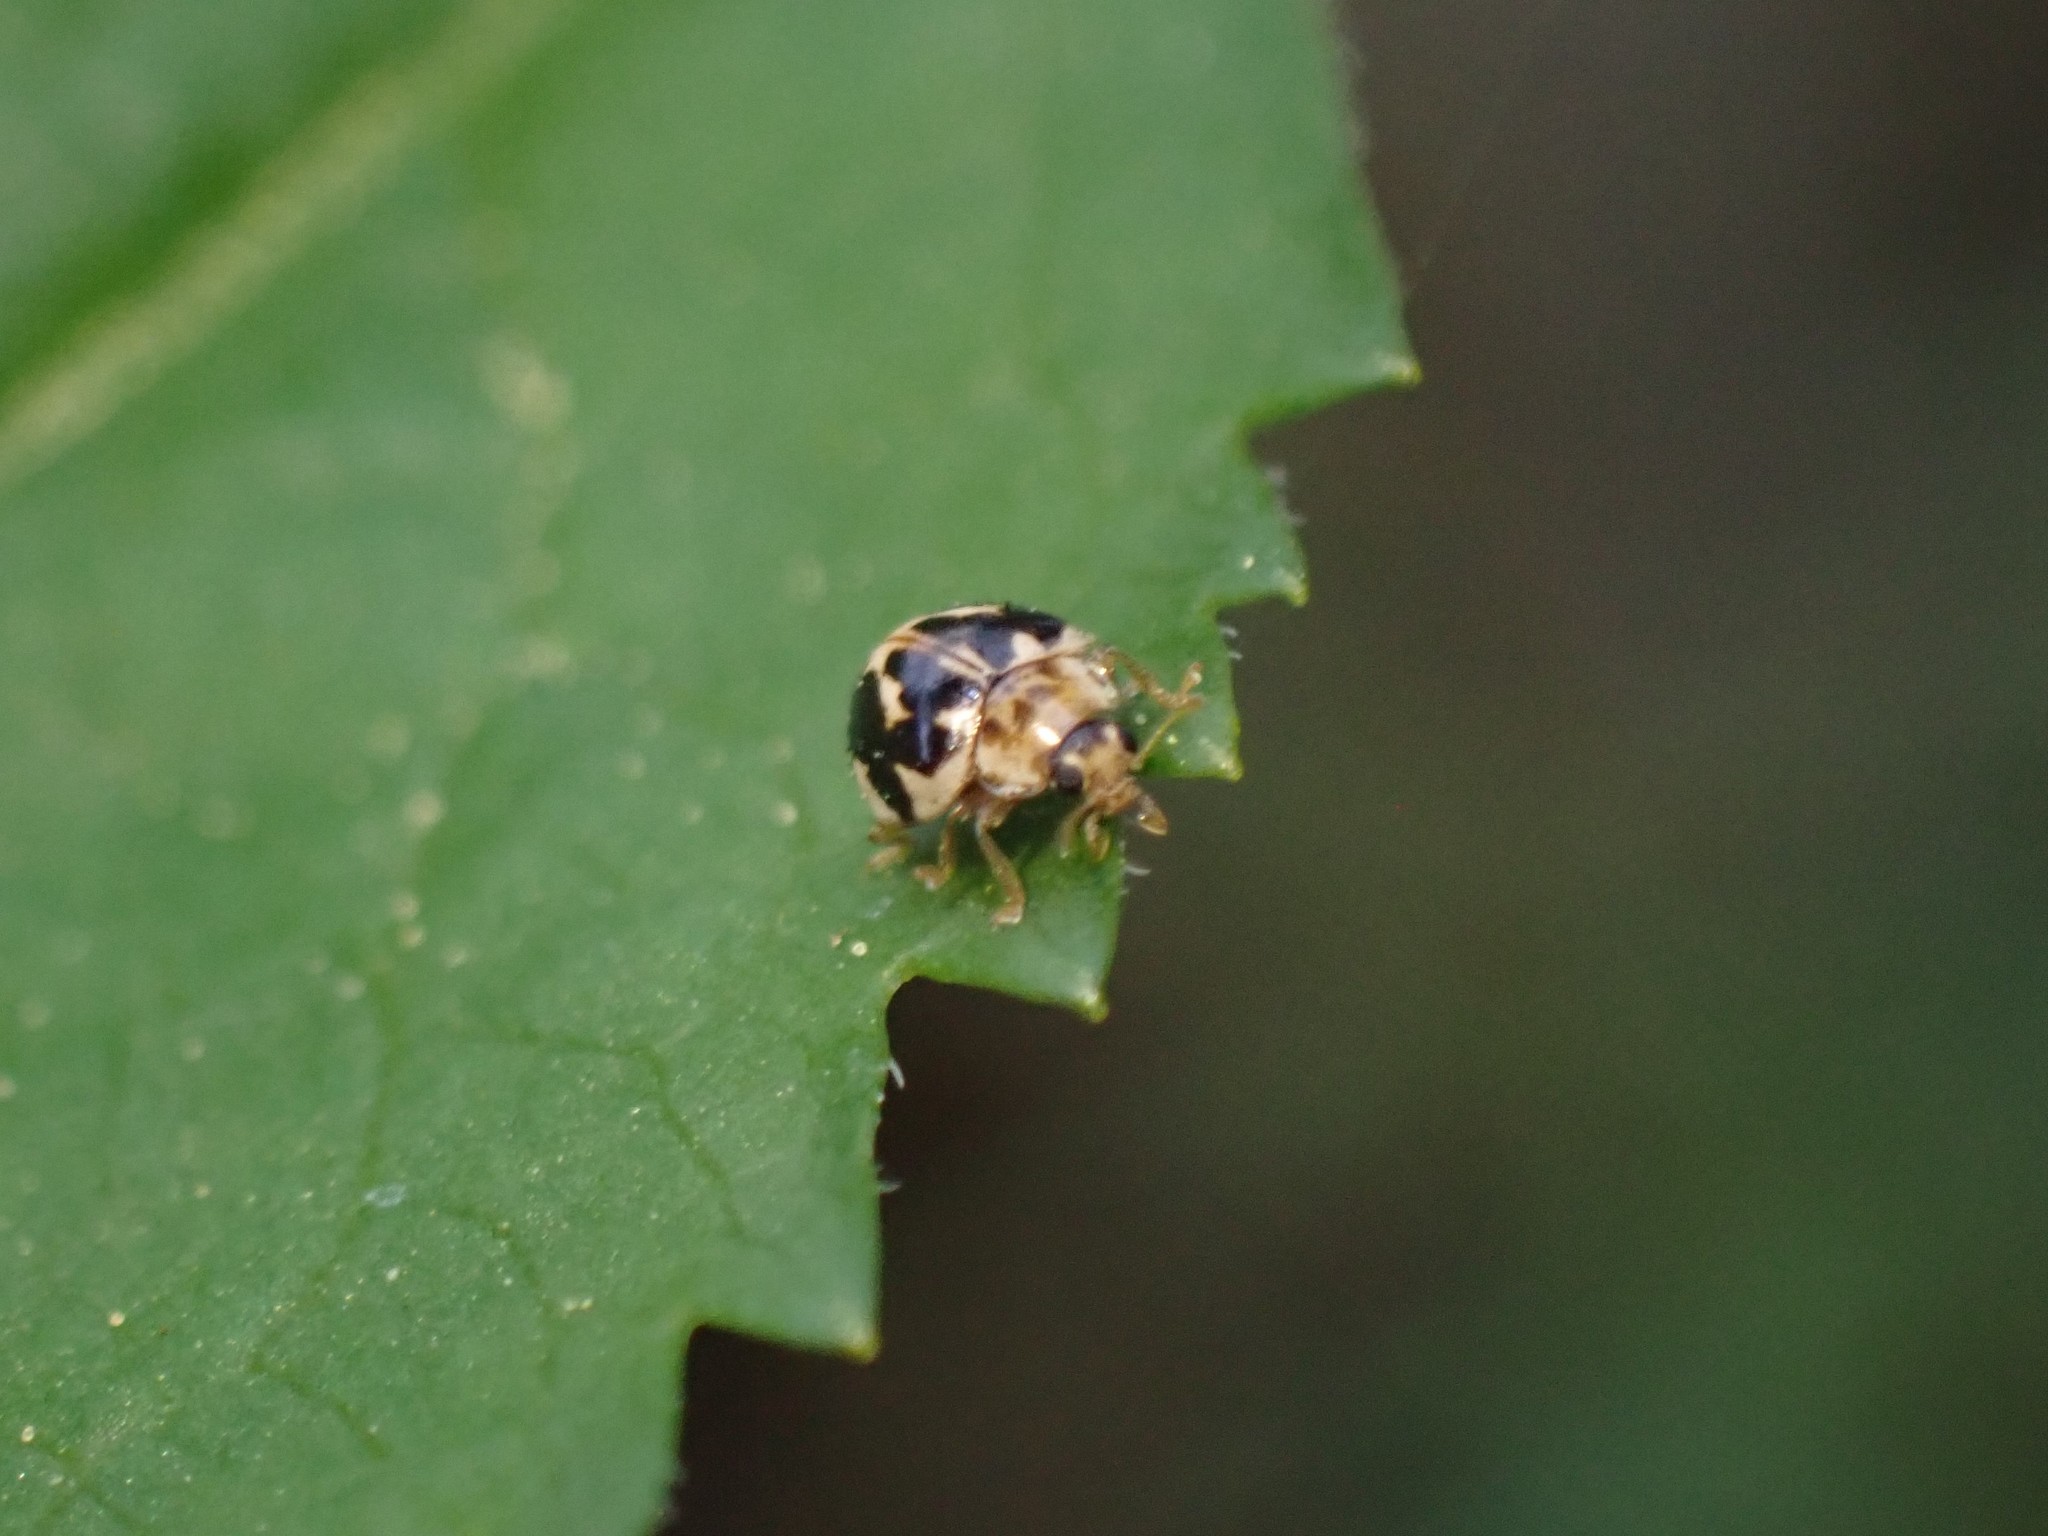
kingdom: Animalia
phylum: Arthropoda
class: Insecta
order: Coleoptera
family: Coccinellidae
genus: Psyllobora
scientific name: Psyllobora vigintimaculata
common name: Ladybird beetle
